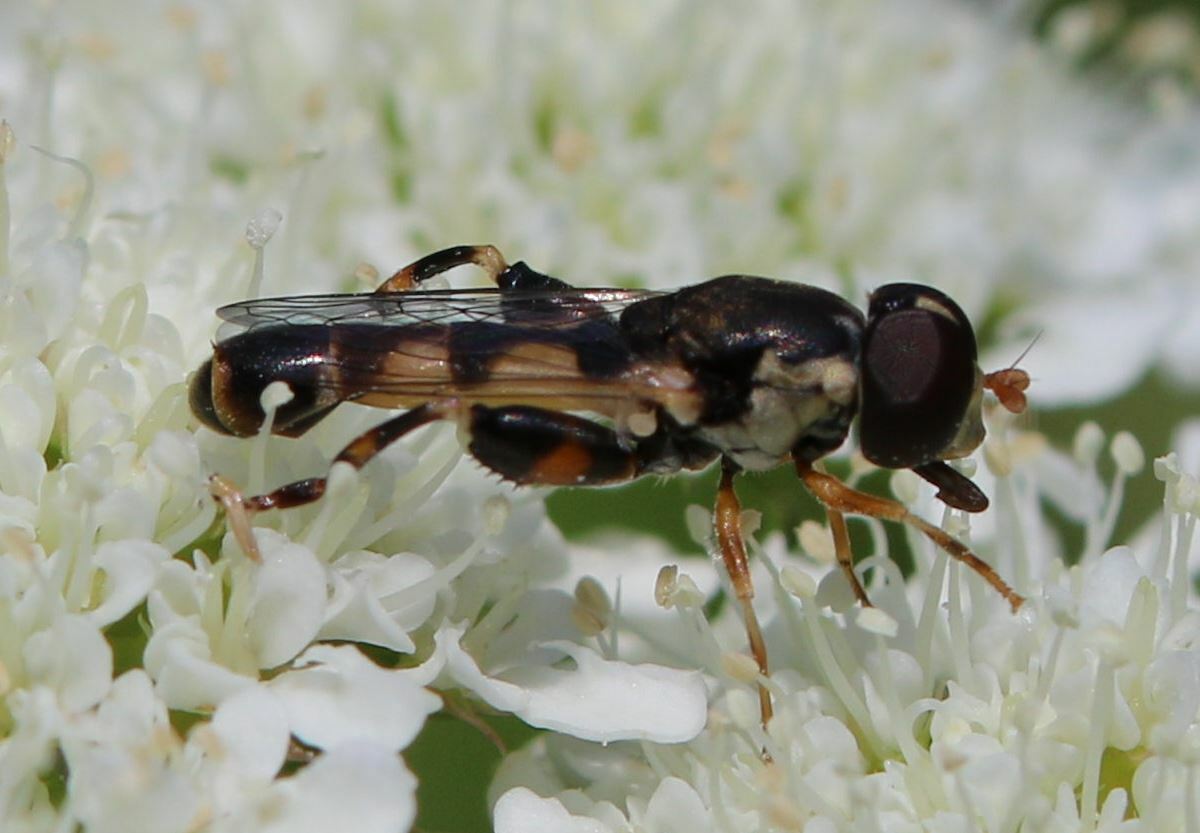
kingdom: Animalia
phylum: Arthropoda
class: Insecta
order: Diptera
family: Syrphidae
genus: Syritta
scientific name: Syritta pipiens
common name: Hover fly
